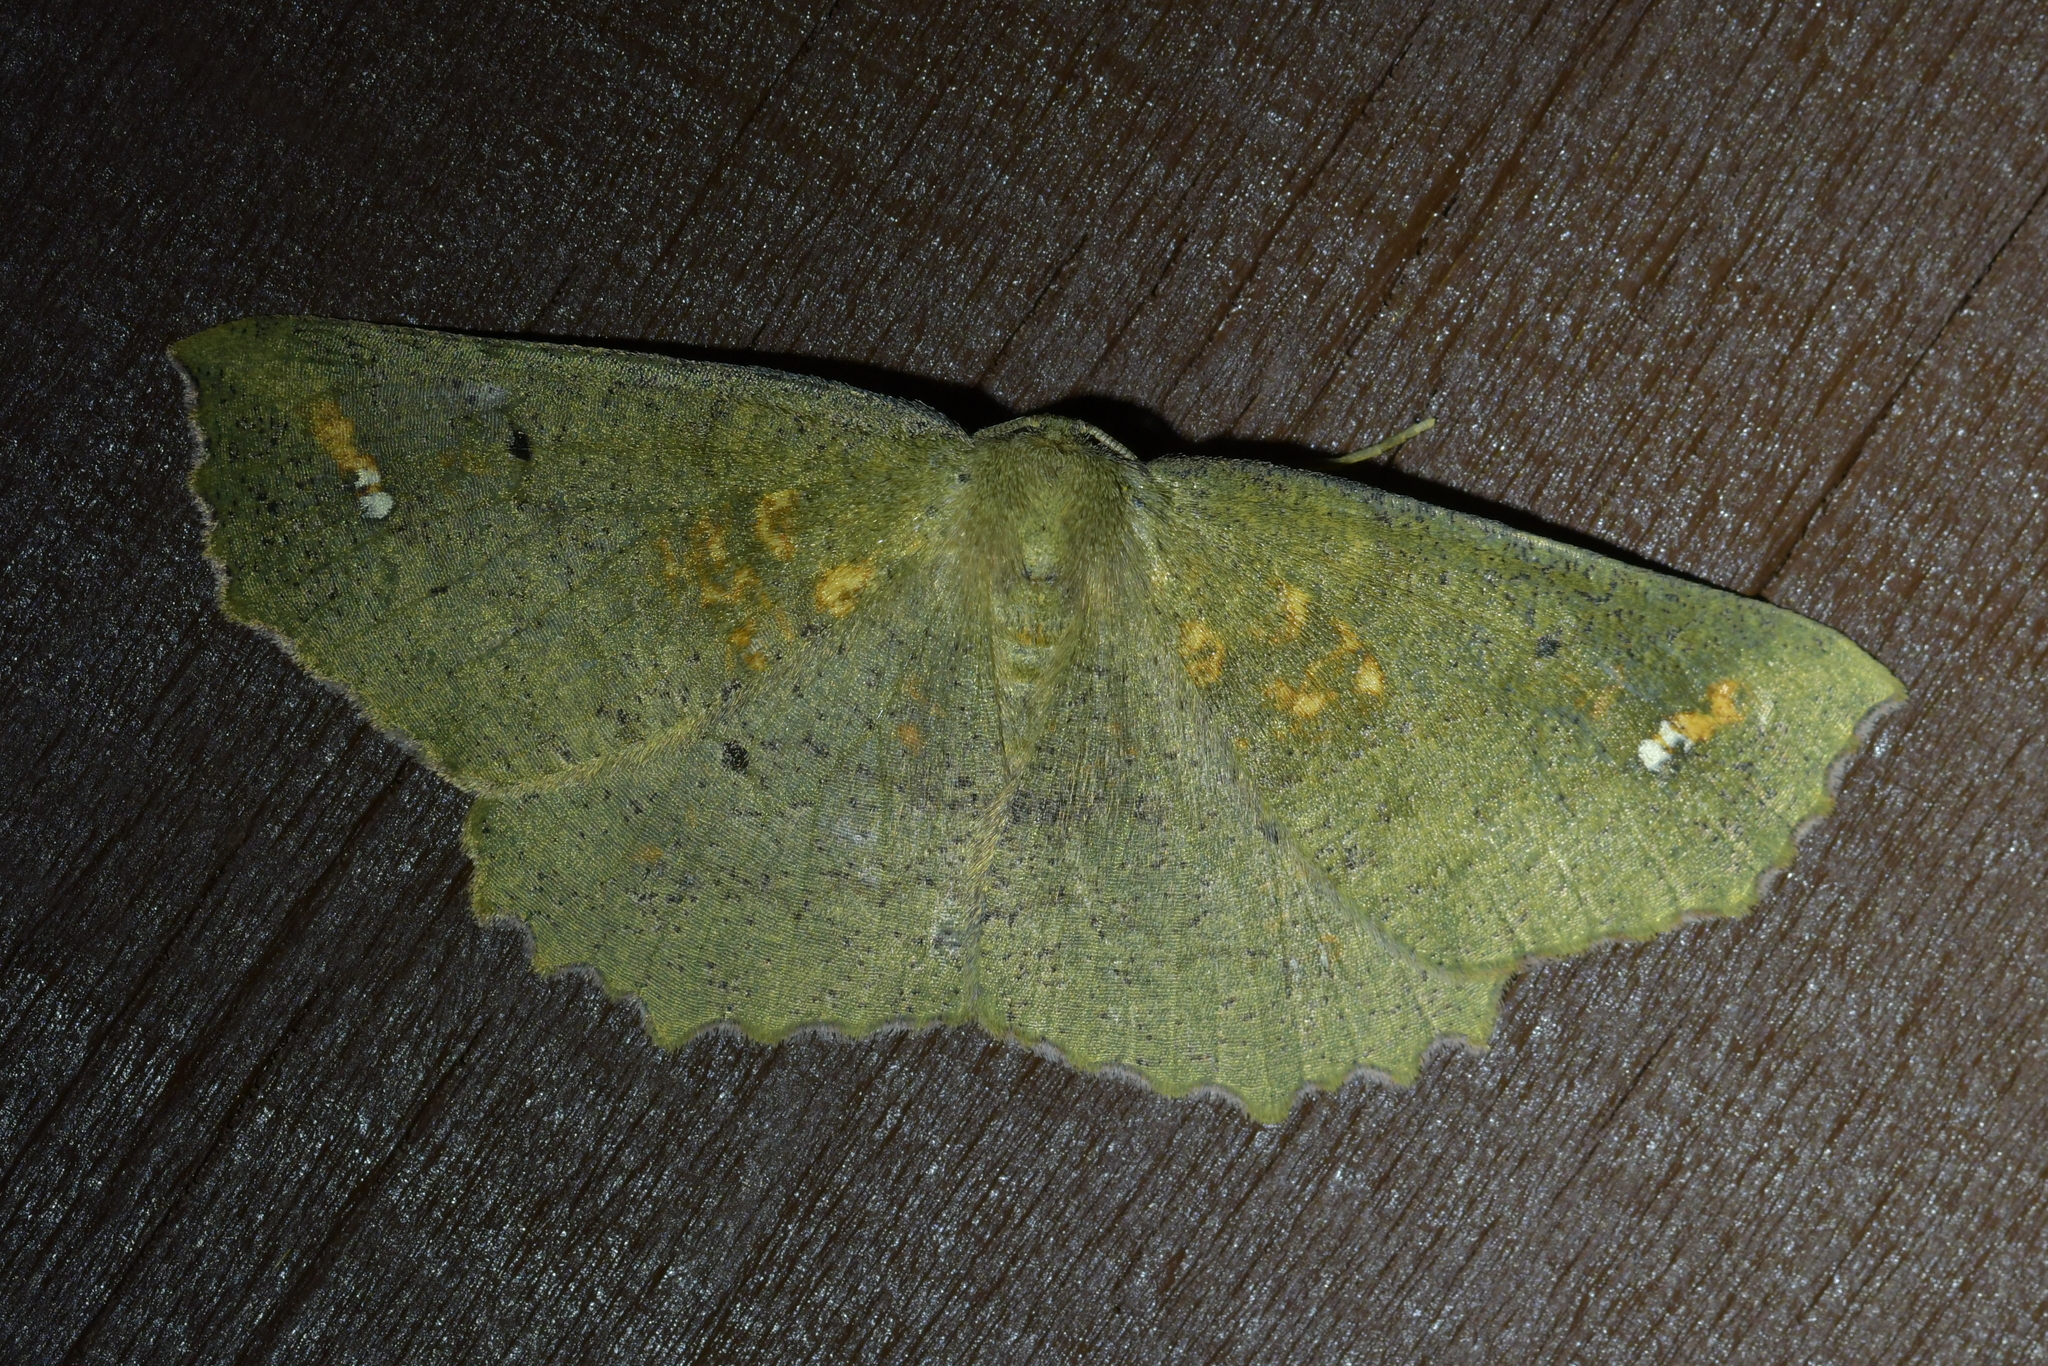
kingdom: Animalia
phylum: Arthropoda
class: Insecta
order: Lepidoptera
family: Geometridae
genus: Xyridacma
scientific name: Xyridacma ustaria
